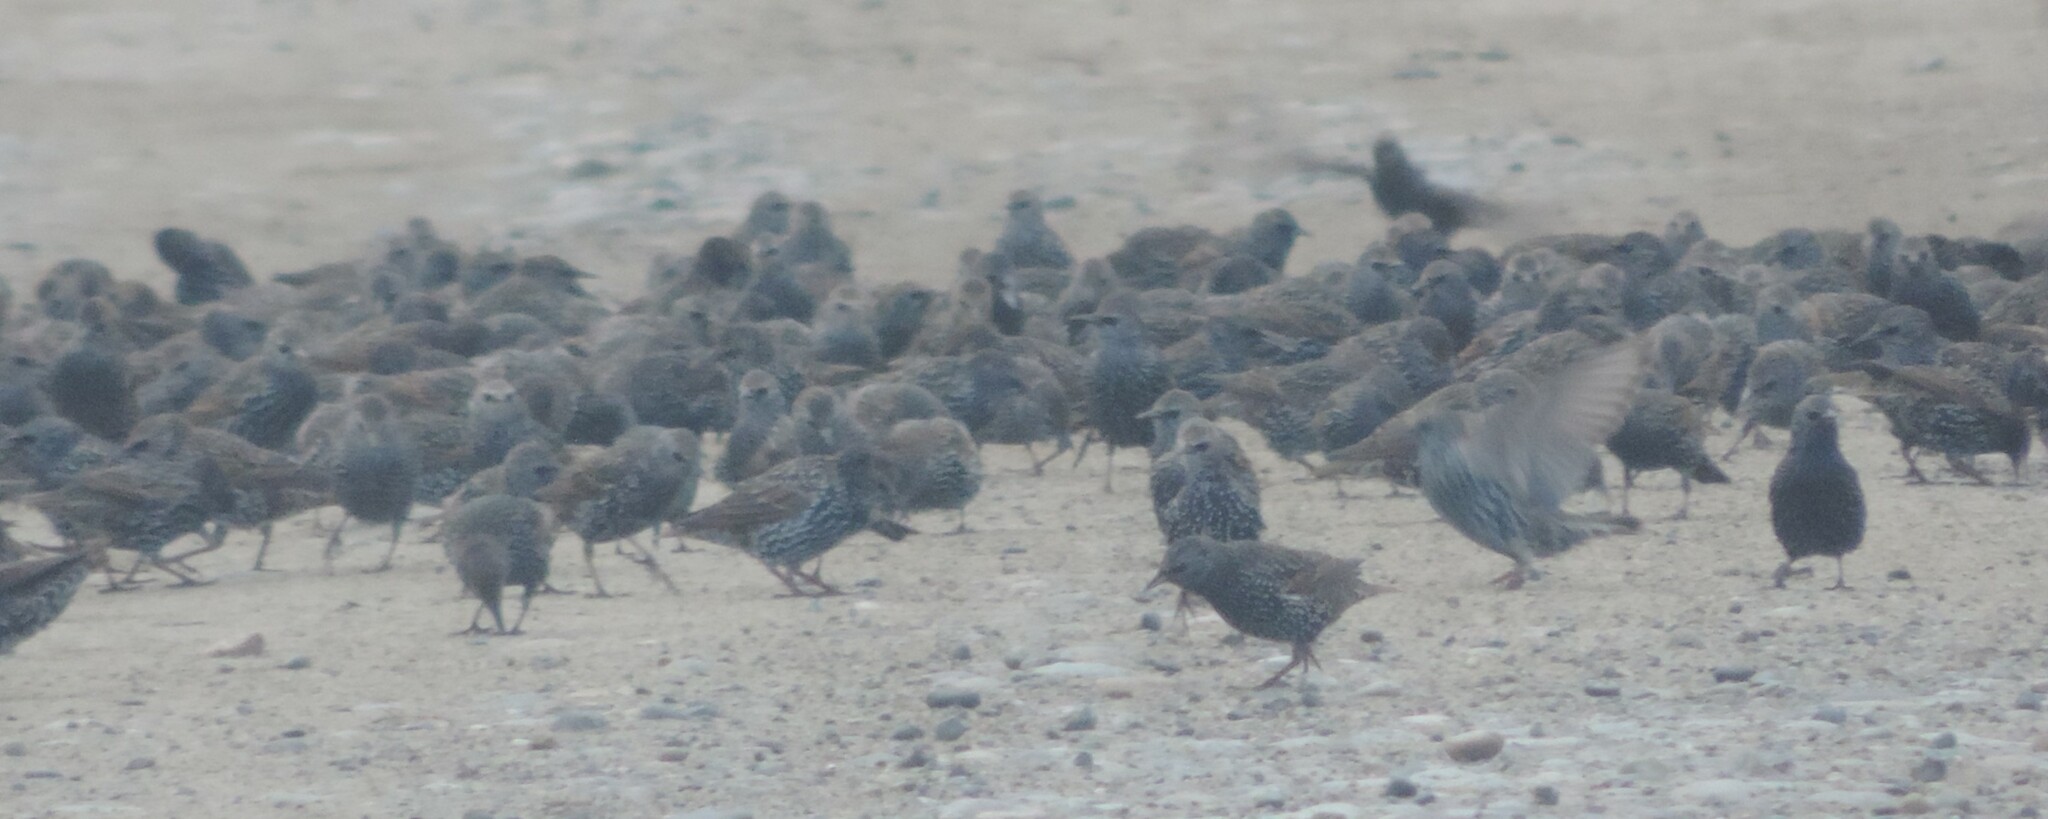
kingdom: Animalia
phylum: Chordata
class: Aves
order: Passeriformes
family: Sturnidae
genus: Sturnus
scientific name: Sturnus vulgaris
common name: Common starling
